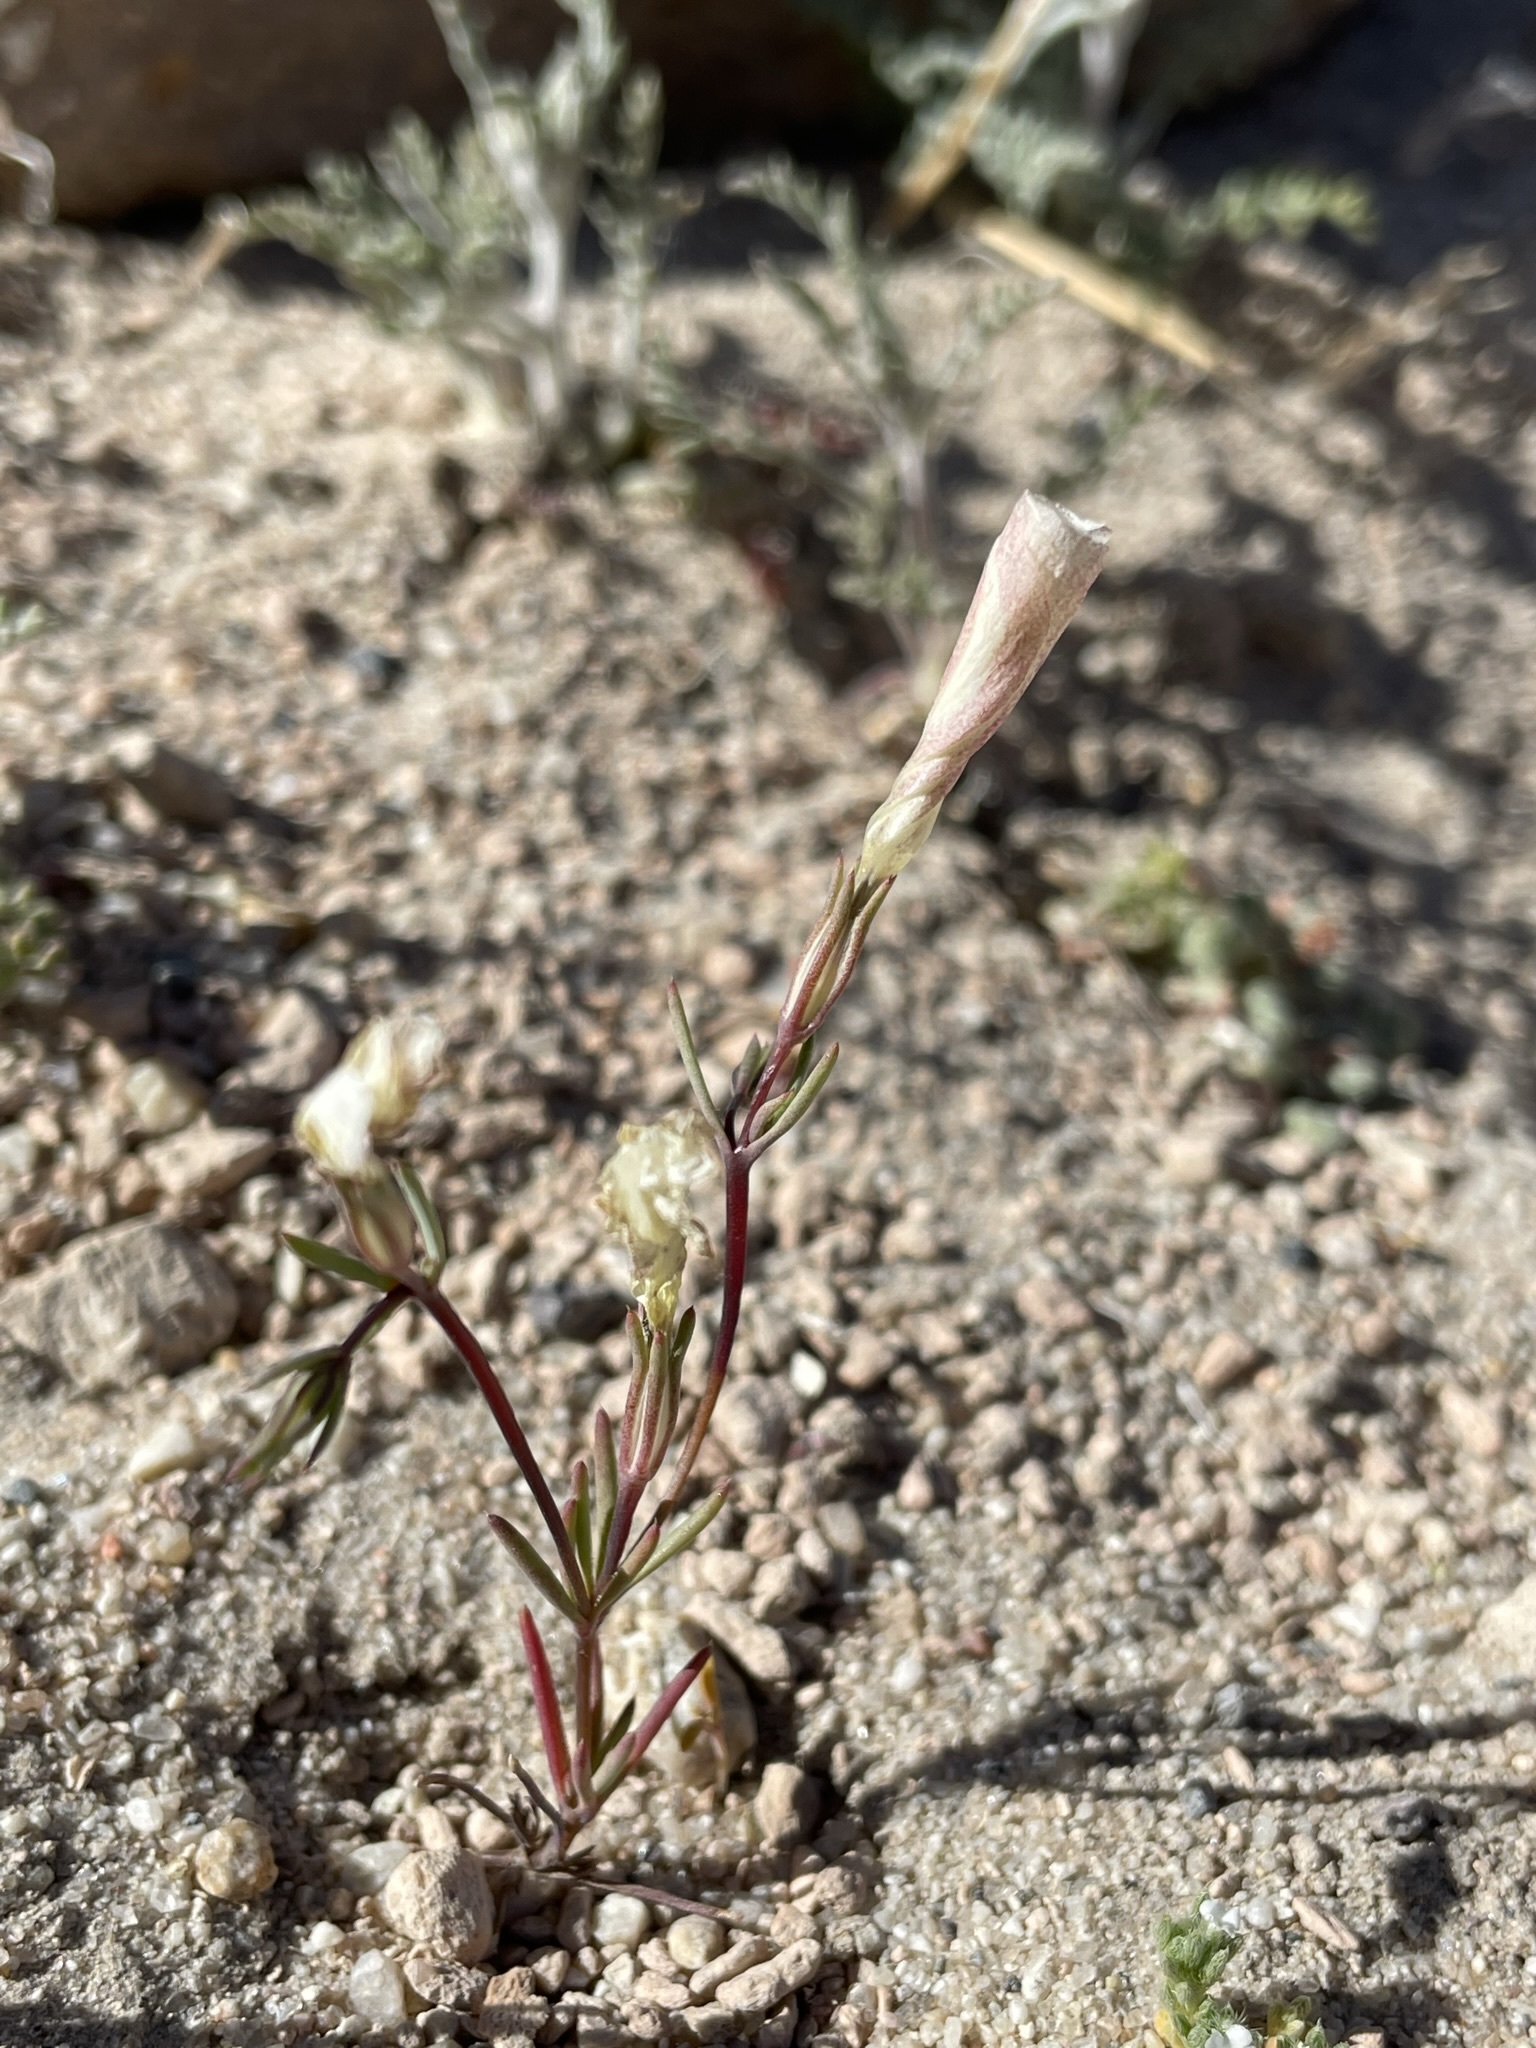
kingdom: Plantae
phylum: Tracheophyta
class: Magnoliopsida
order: Ericales
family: Polemoniaceae
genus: Linanthus
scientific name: Linanthus dichotomus
